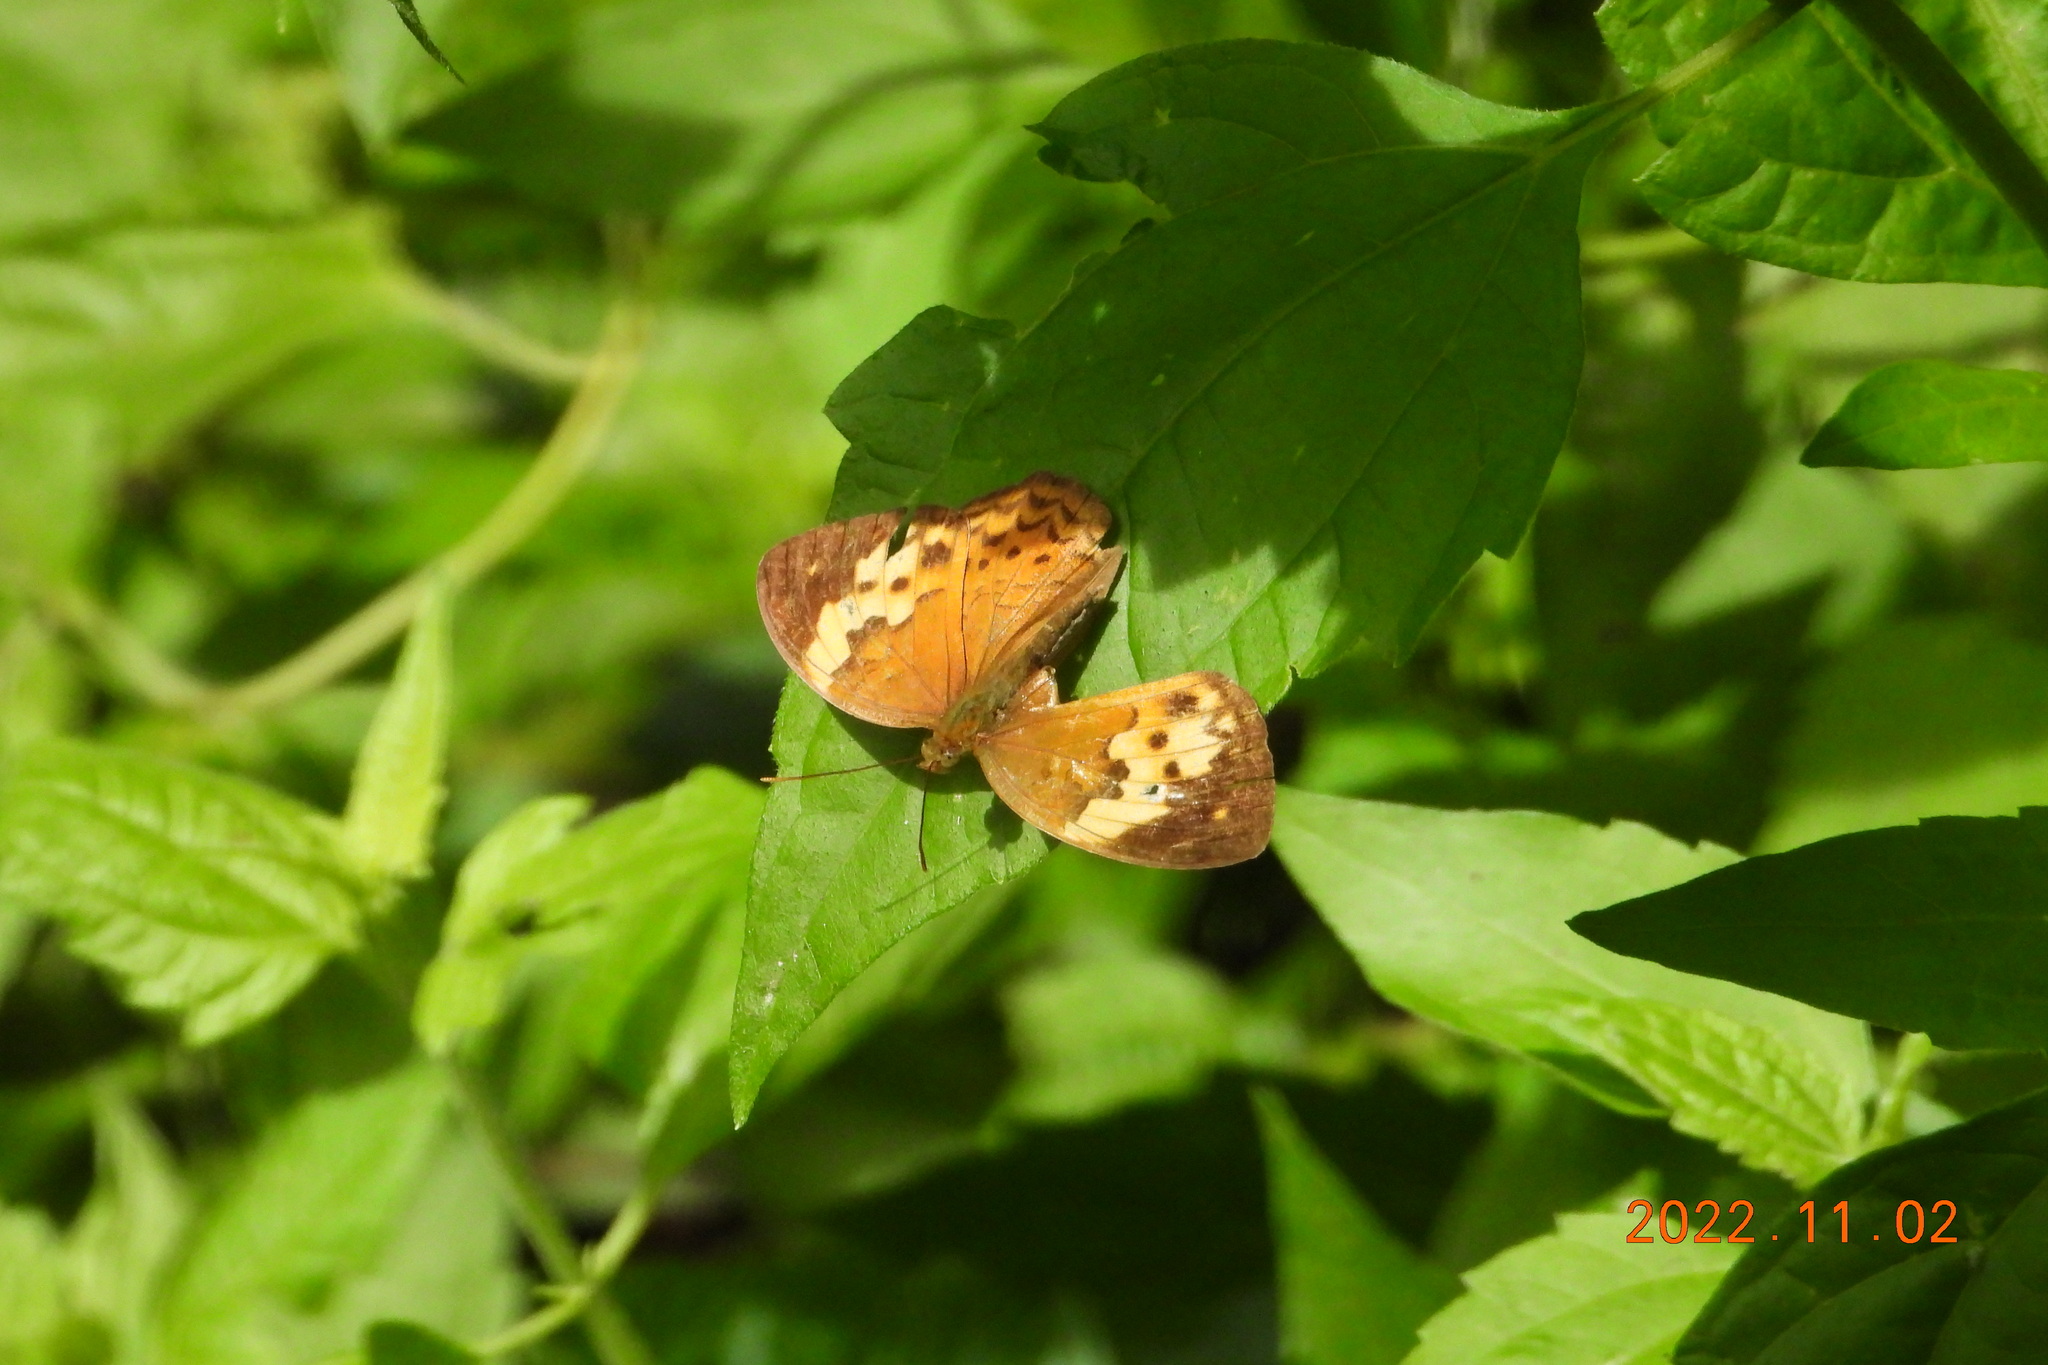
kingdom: Animalia
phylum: Arthropoda
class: Insecta
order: Lepidoptera
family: Nymphalidae
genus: Cupha
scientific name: Cupha erymanthis
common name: Rustic
